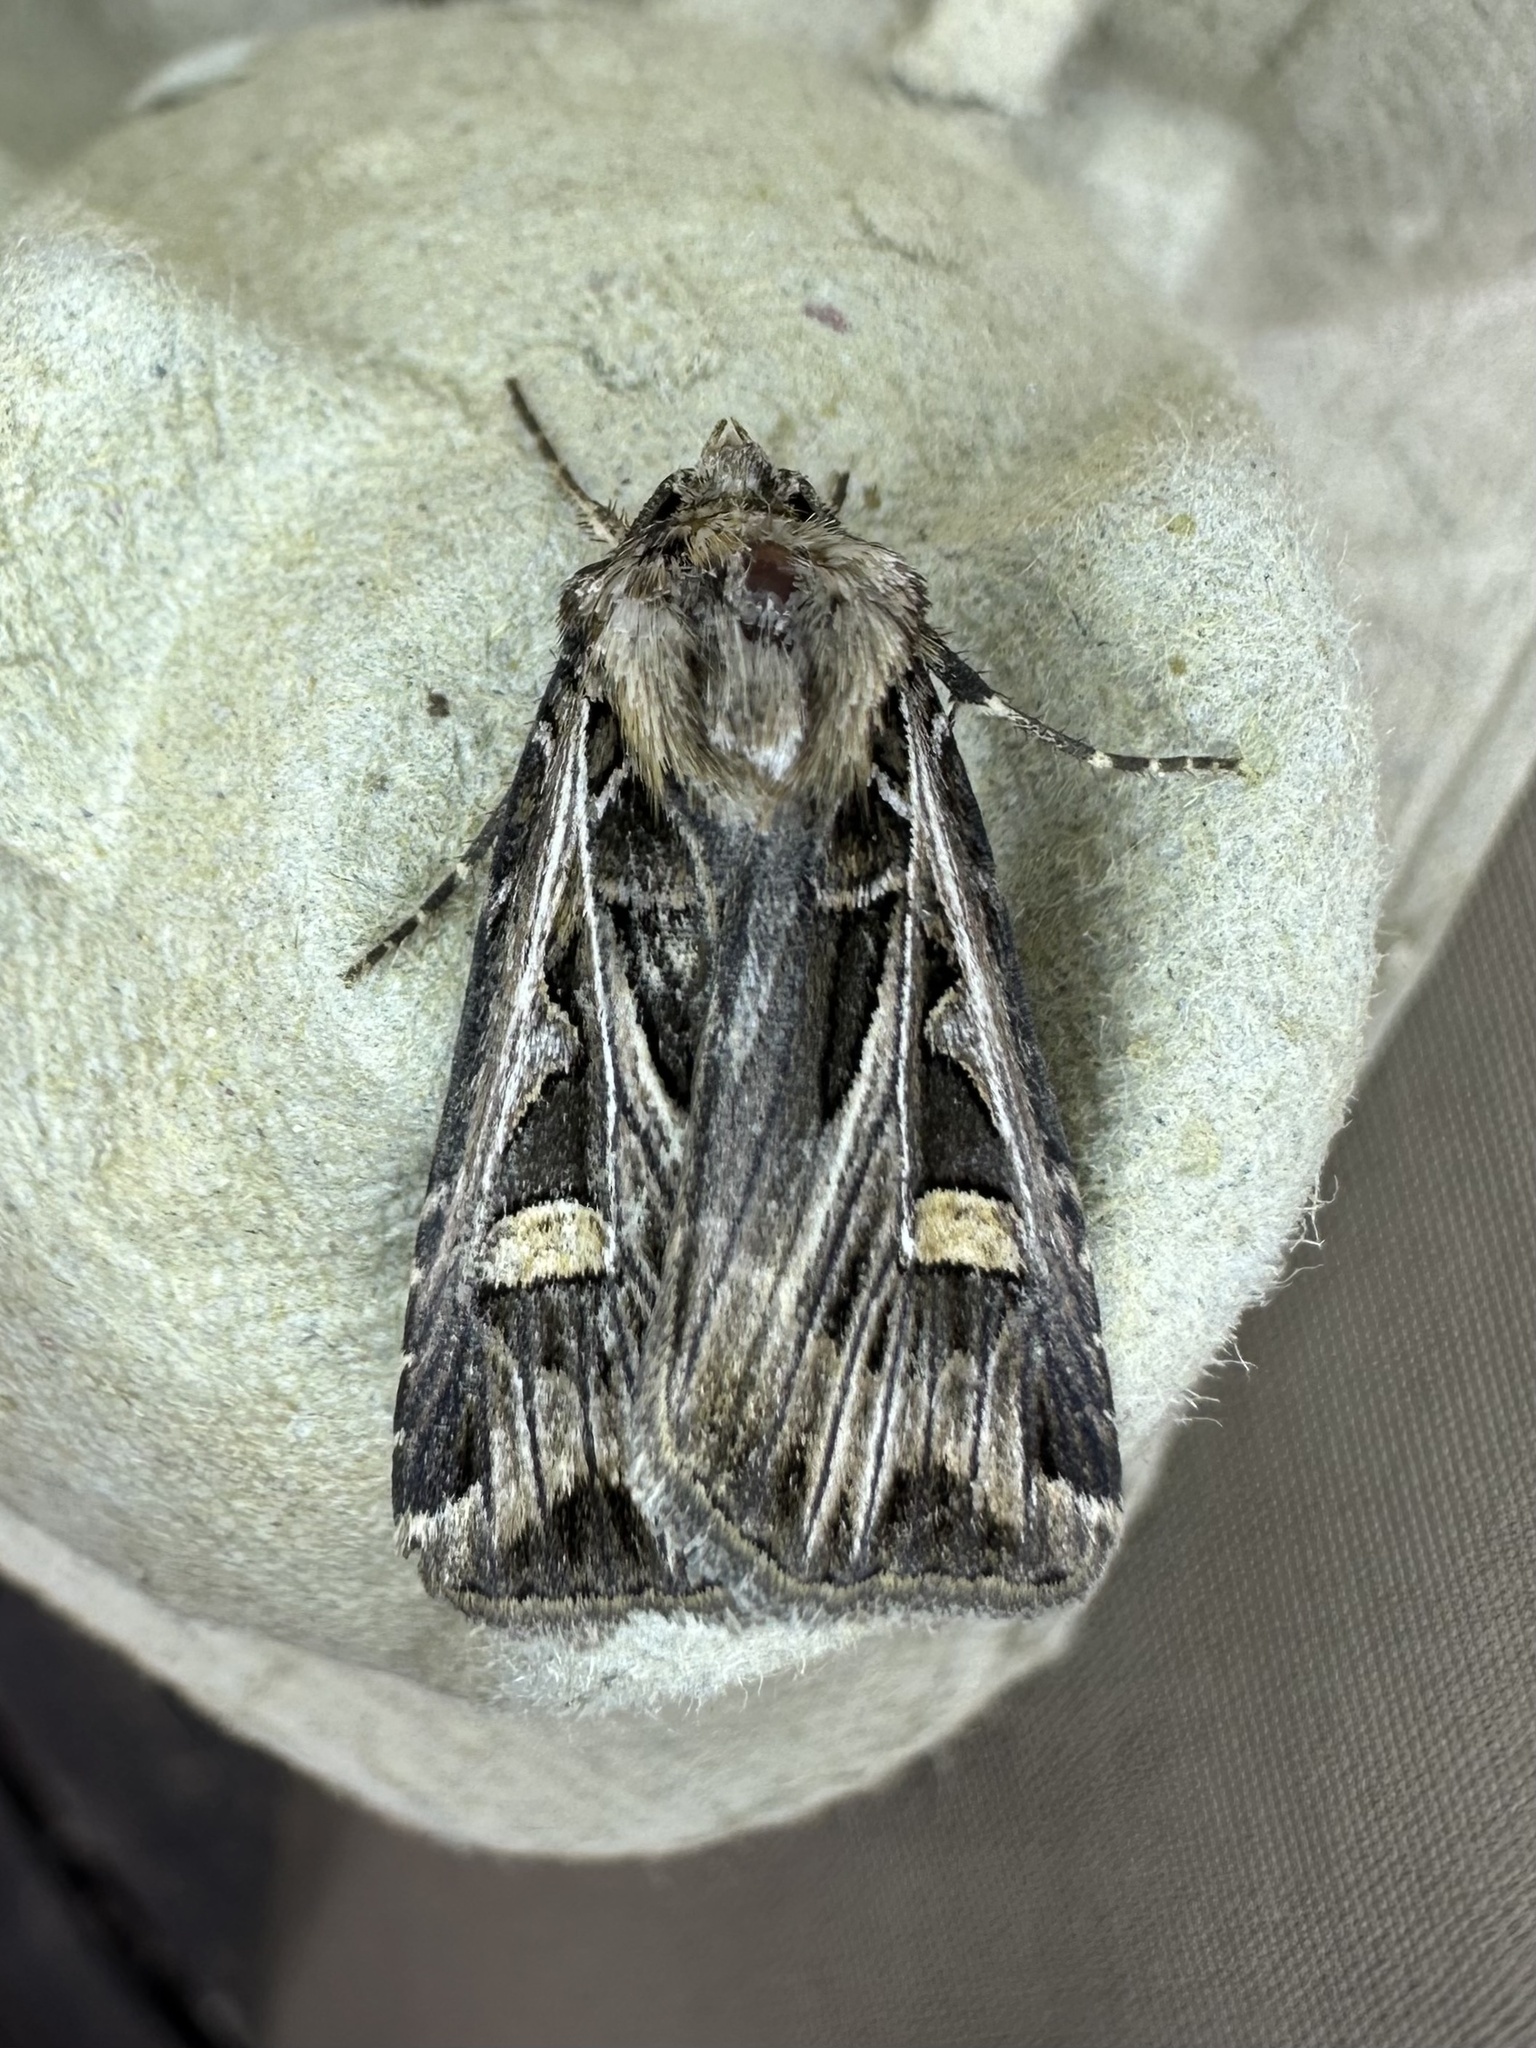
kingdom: Animalia
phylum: Arthropoda
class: Insecta
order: Lepidoptera
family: Noctuidae
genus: Feltia
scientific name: Feltia jaculifera
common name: Dingy cutworm moth
